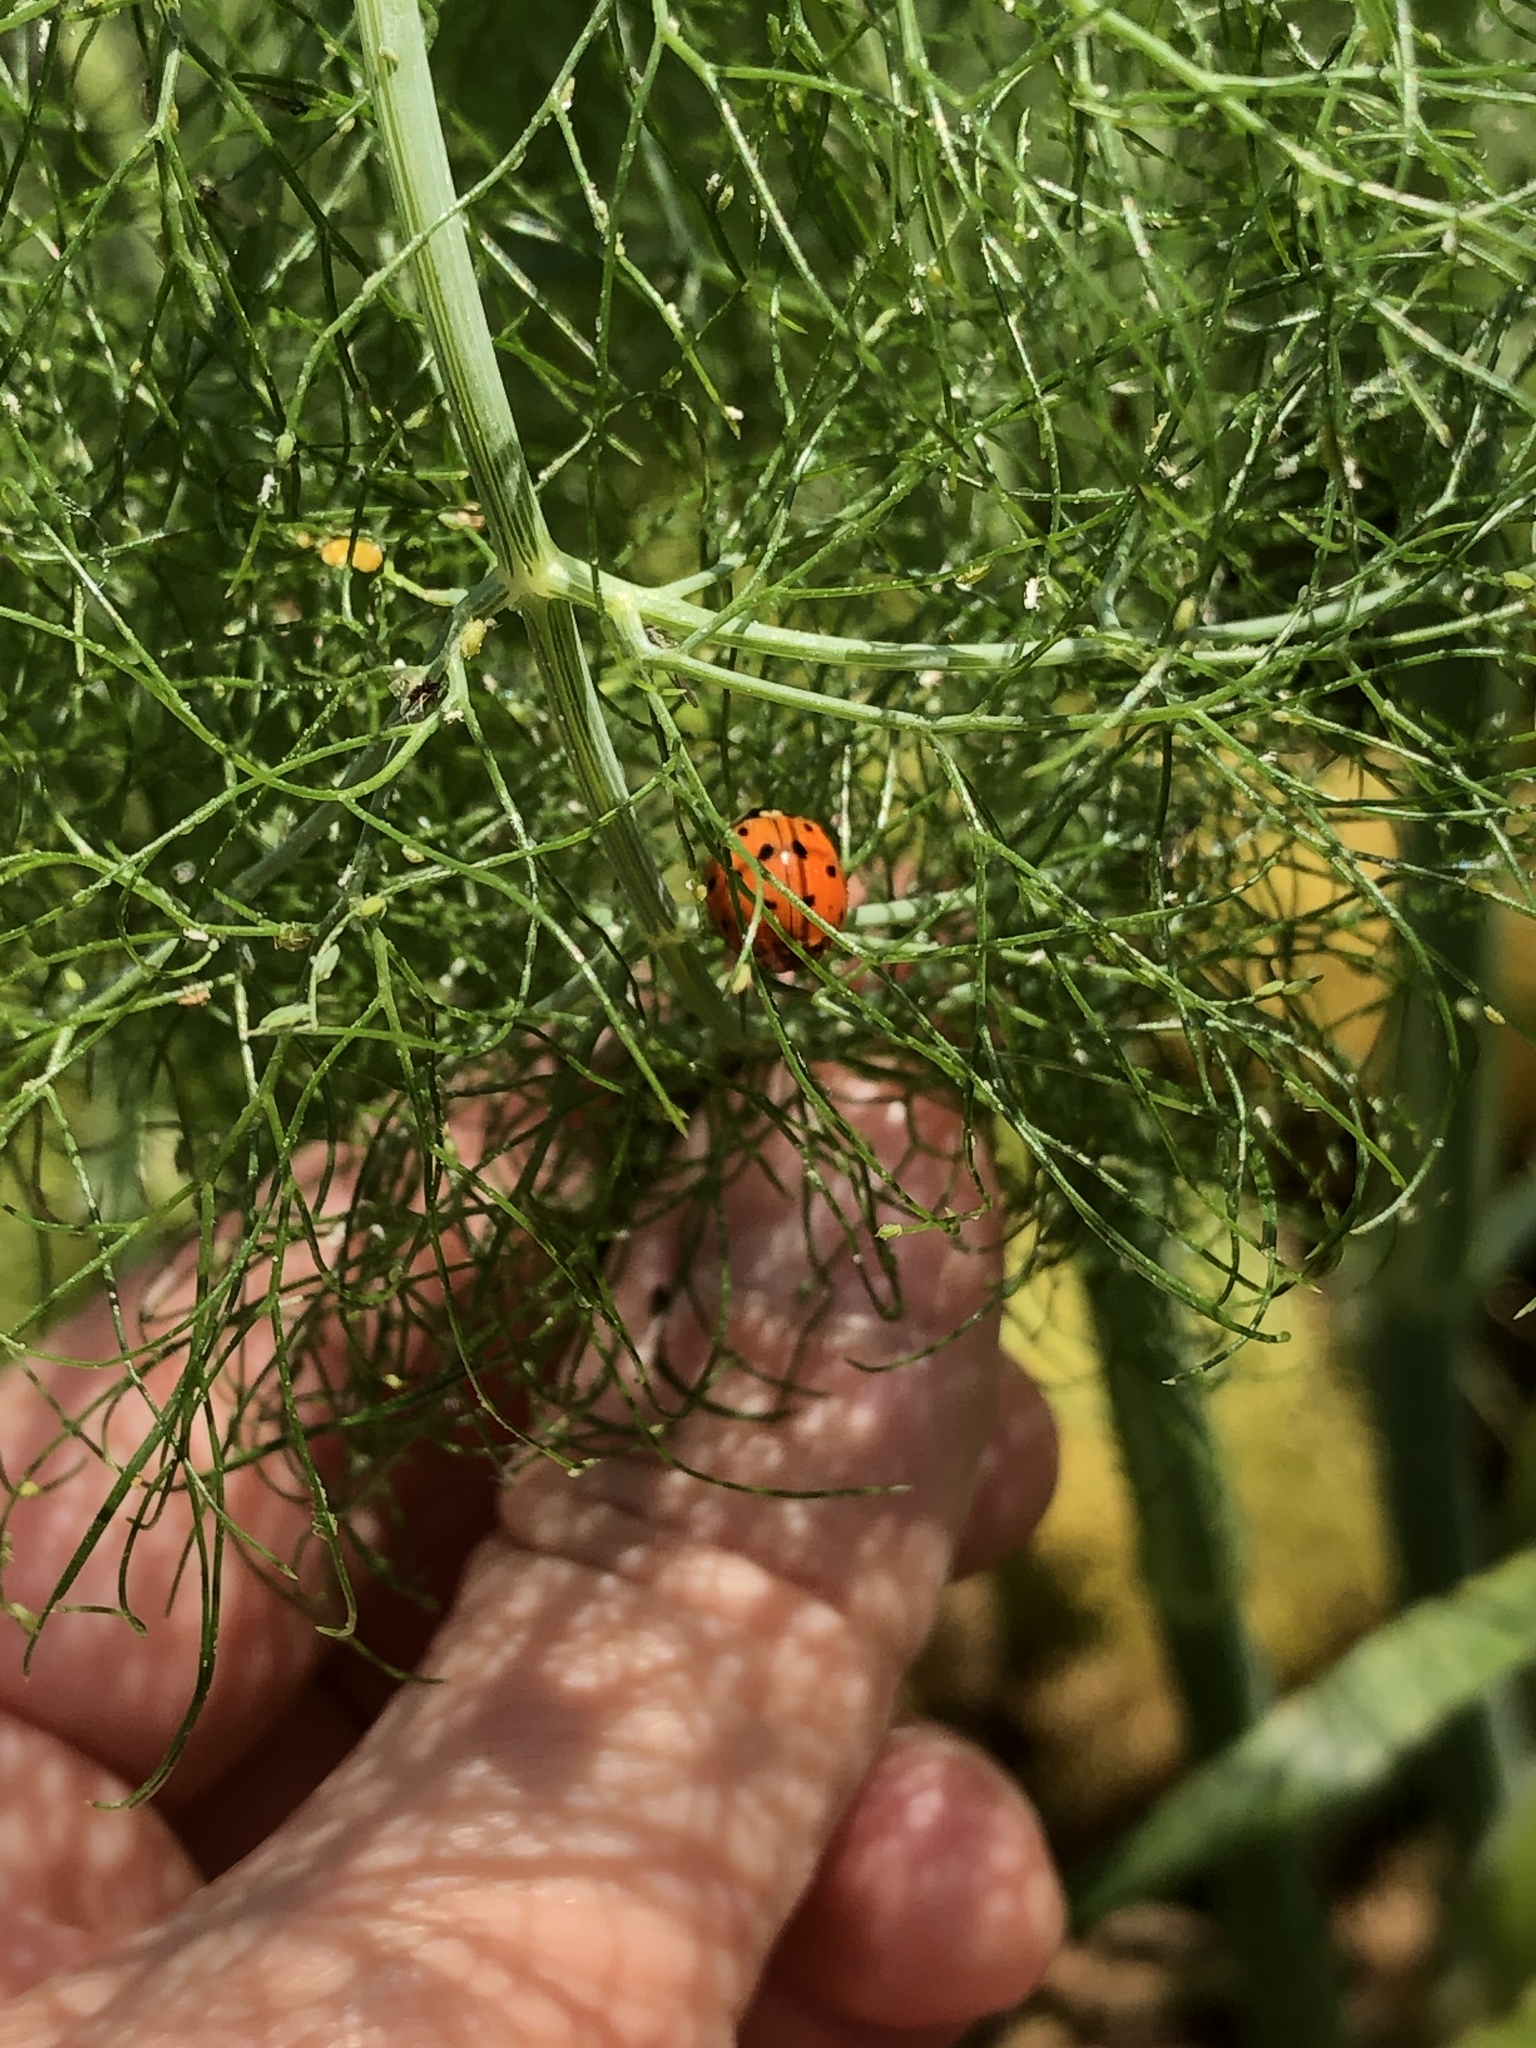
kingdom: Animalia
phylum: Arthropoda
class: Insecta
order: Coleoptera
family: Coccinellidae
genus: Harmonia
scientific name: Harmonia axyridis
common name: Harlequin ladybird
